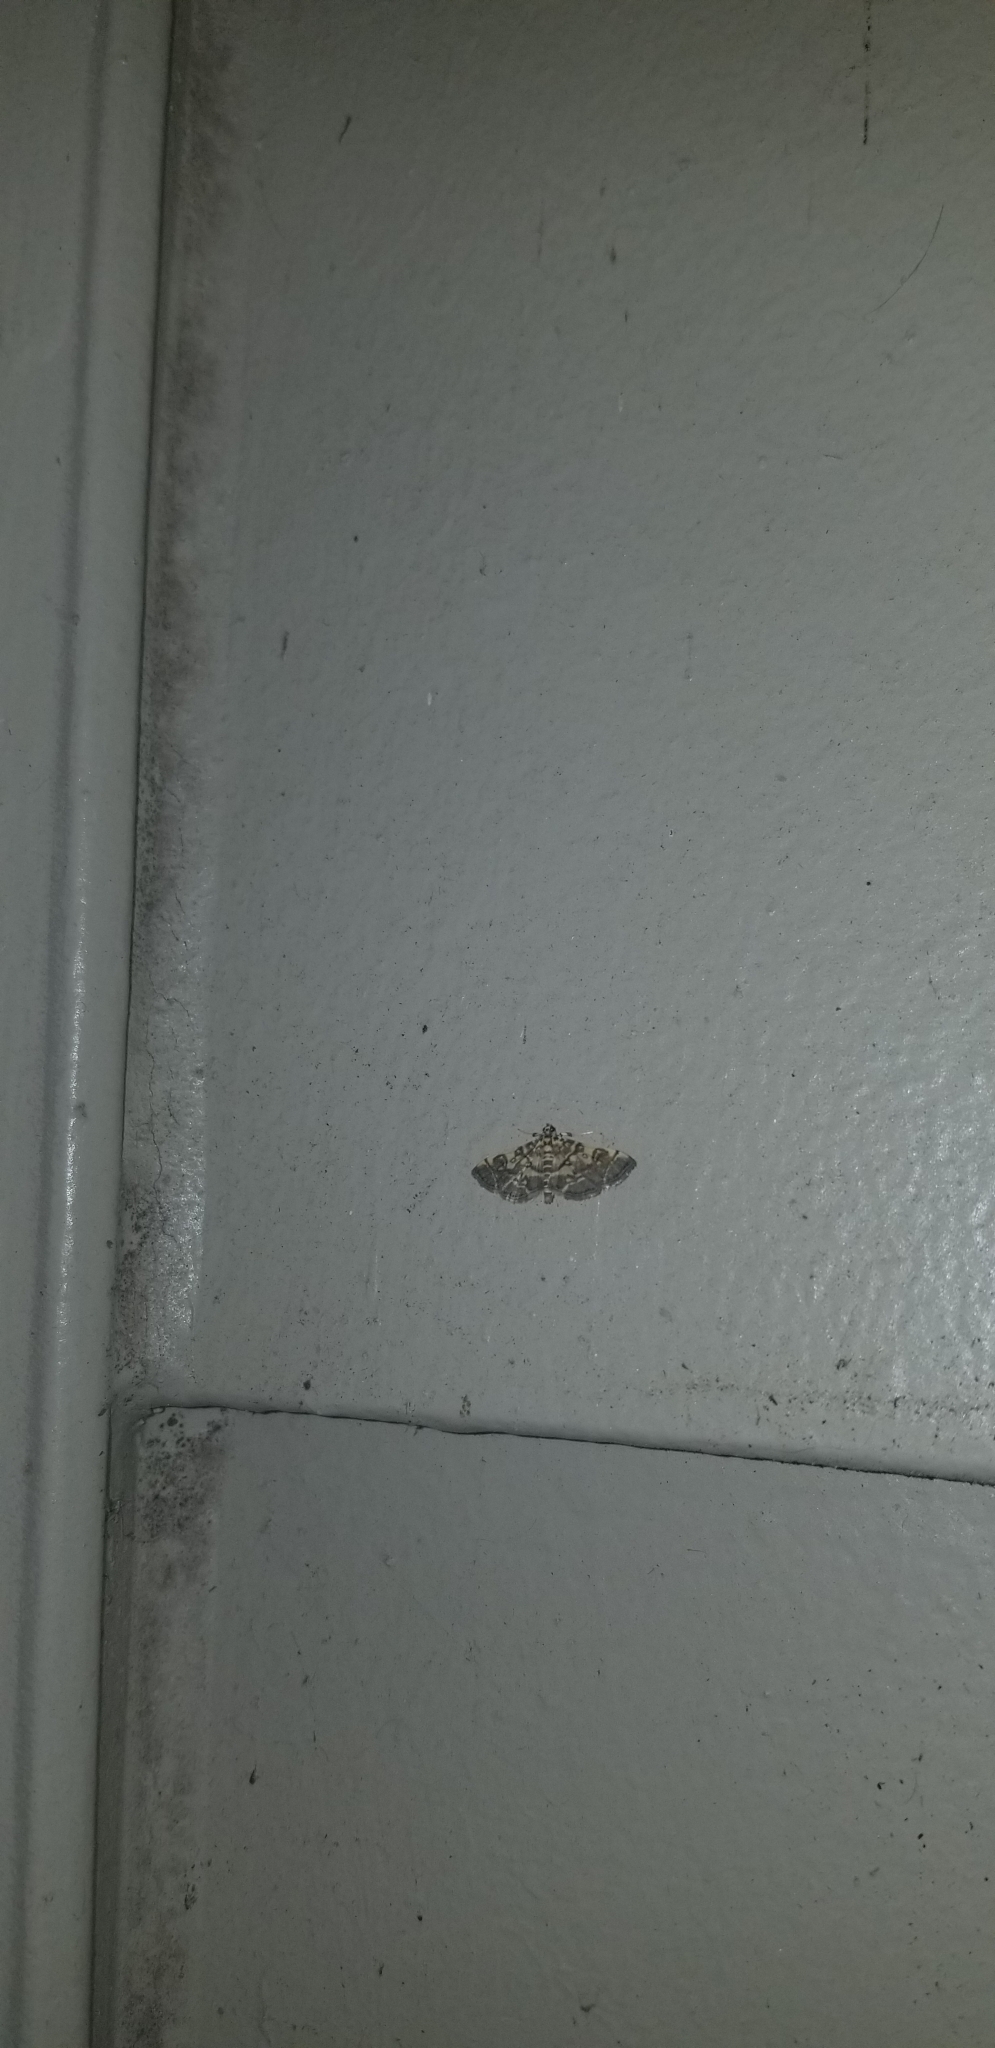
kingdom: Animalia
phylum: Arthropoda
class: Insecta
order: Lepidoptera
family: Crambidae
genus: Anageshna
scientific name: Anageshna primordialis
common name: Yellow-spotted webworm moth
